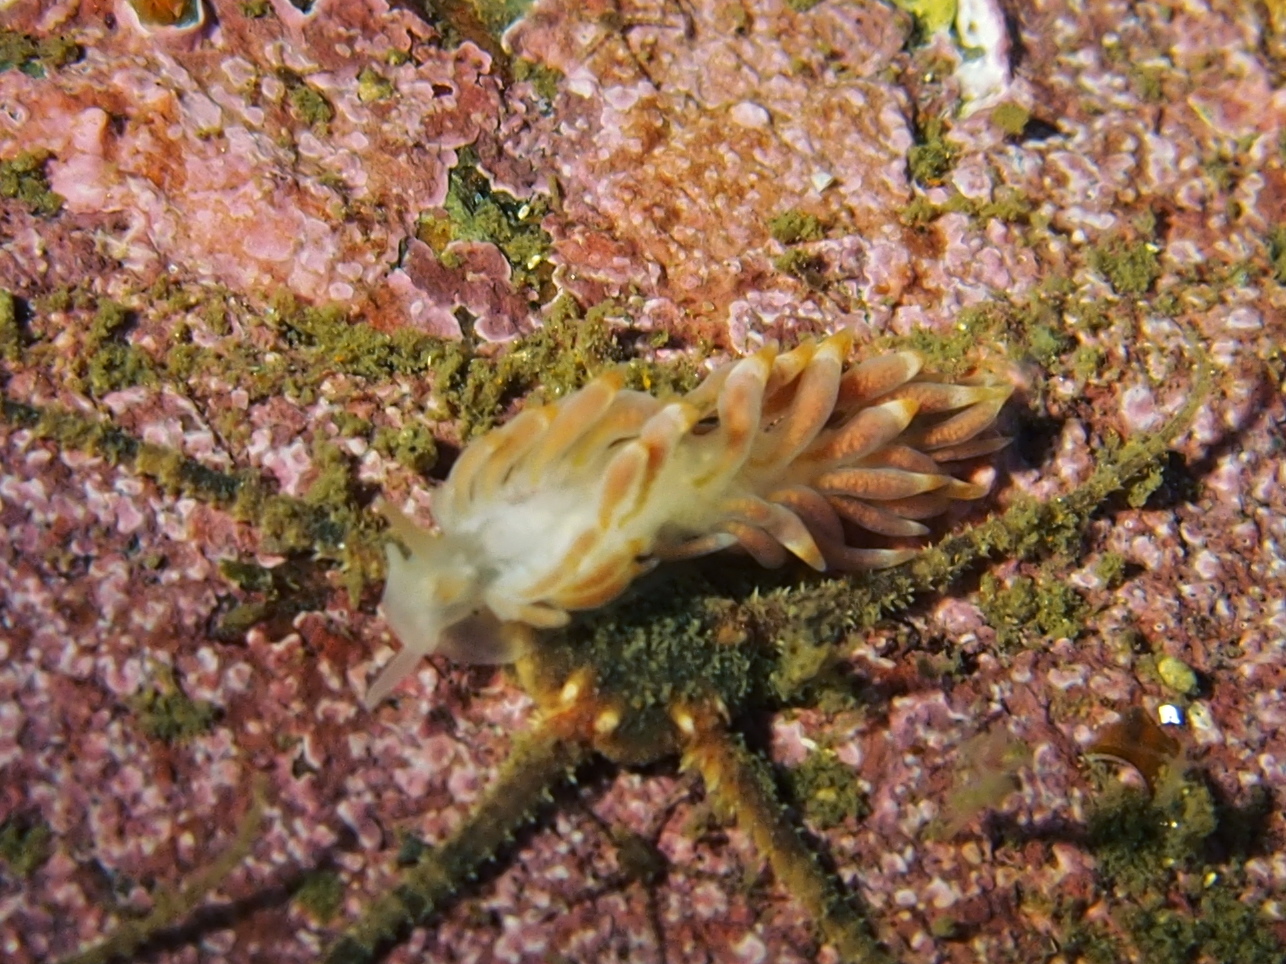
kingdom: Animalia
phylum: Mollusca
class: Gastropoda
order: Nudibranchia
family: Trinchesiidae
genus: Catriona
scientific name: Catriona aurantia
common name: Corange-tip cuthona
